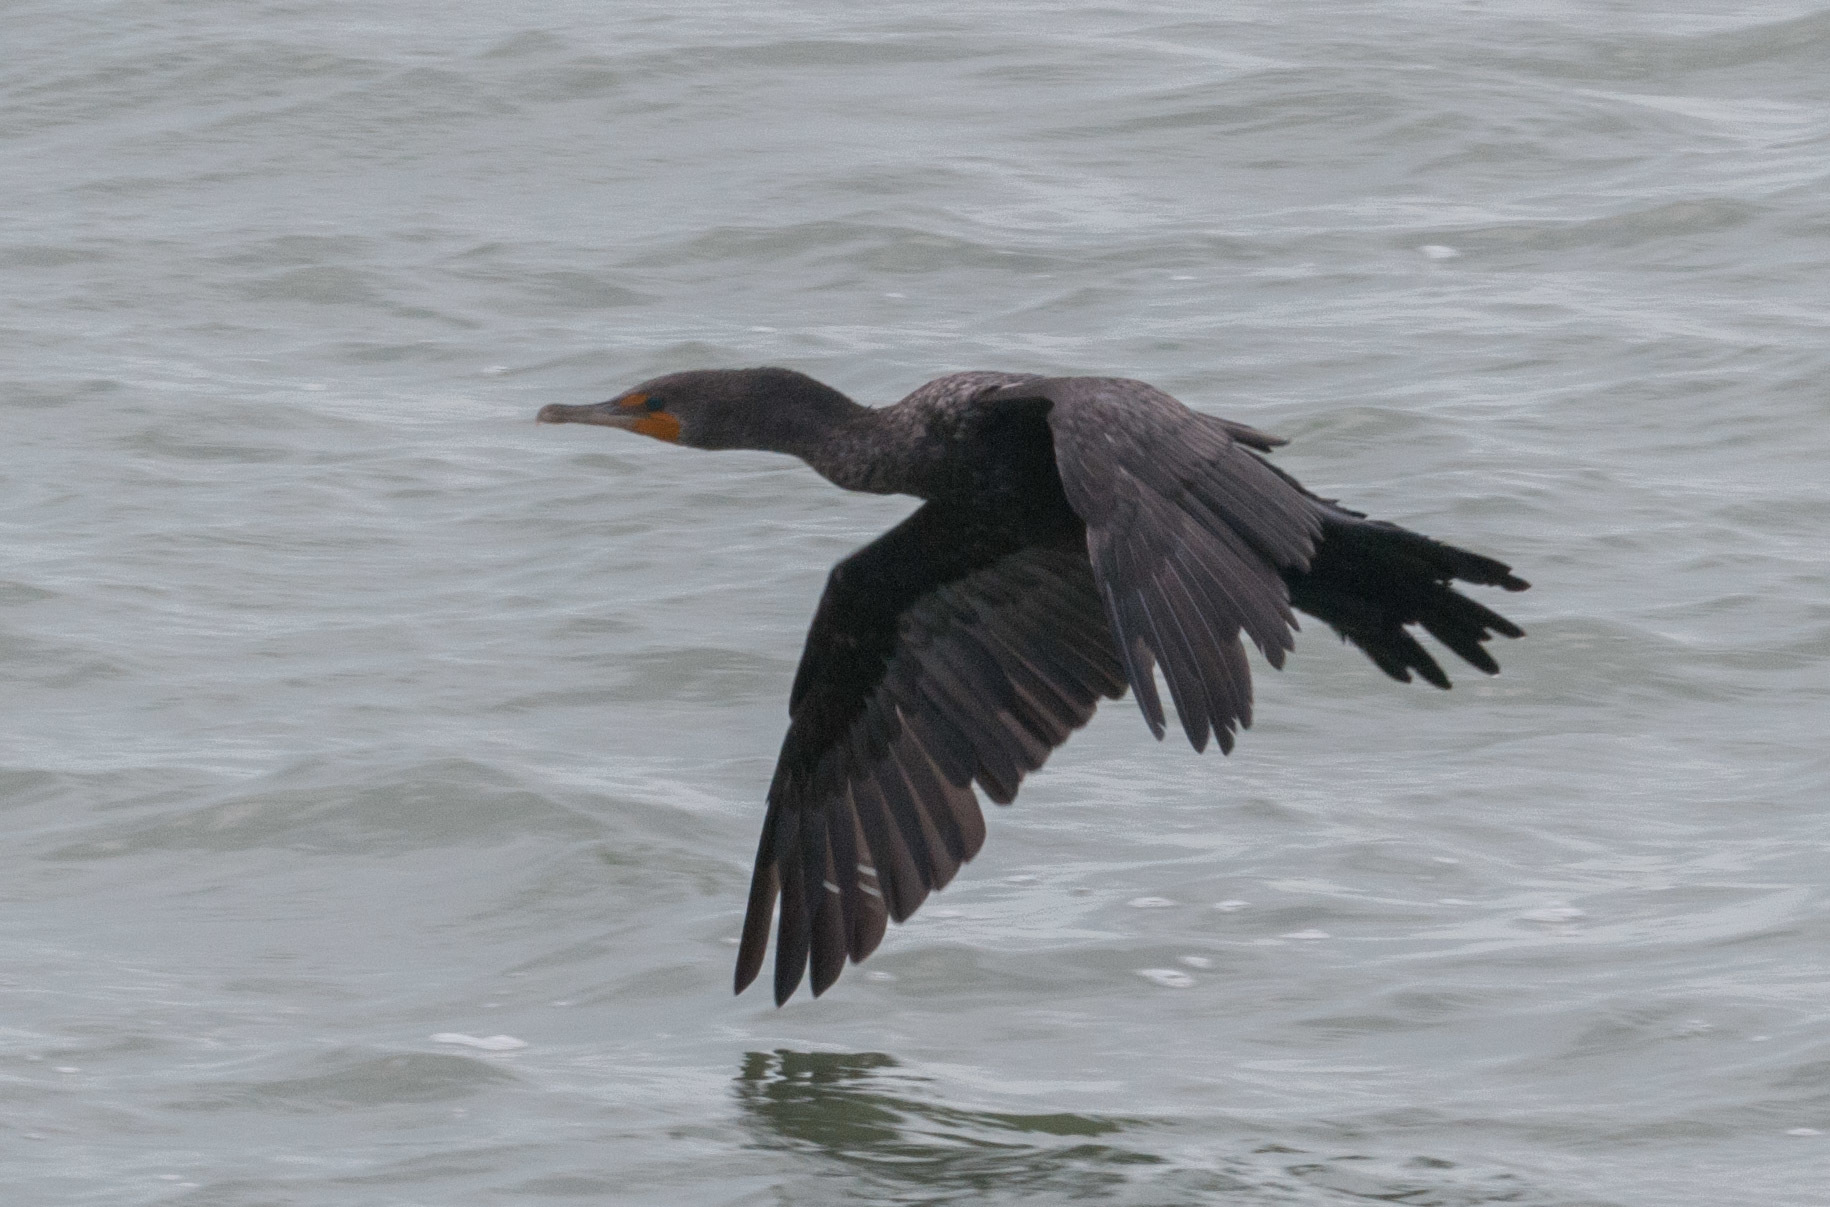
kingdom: Animalia
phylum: Chordata
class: Aves
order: Suliformes
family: Phalacrocoracidae
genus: Phalacrocorax
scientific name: Phalacrocorax auritus
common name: Double-crested cormorant
